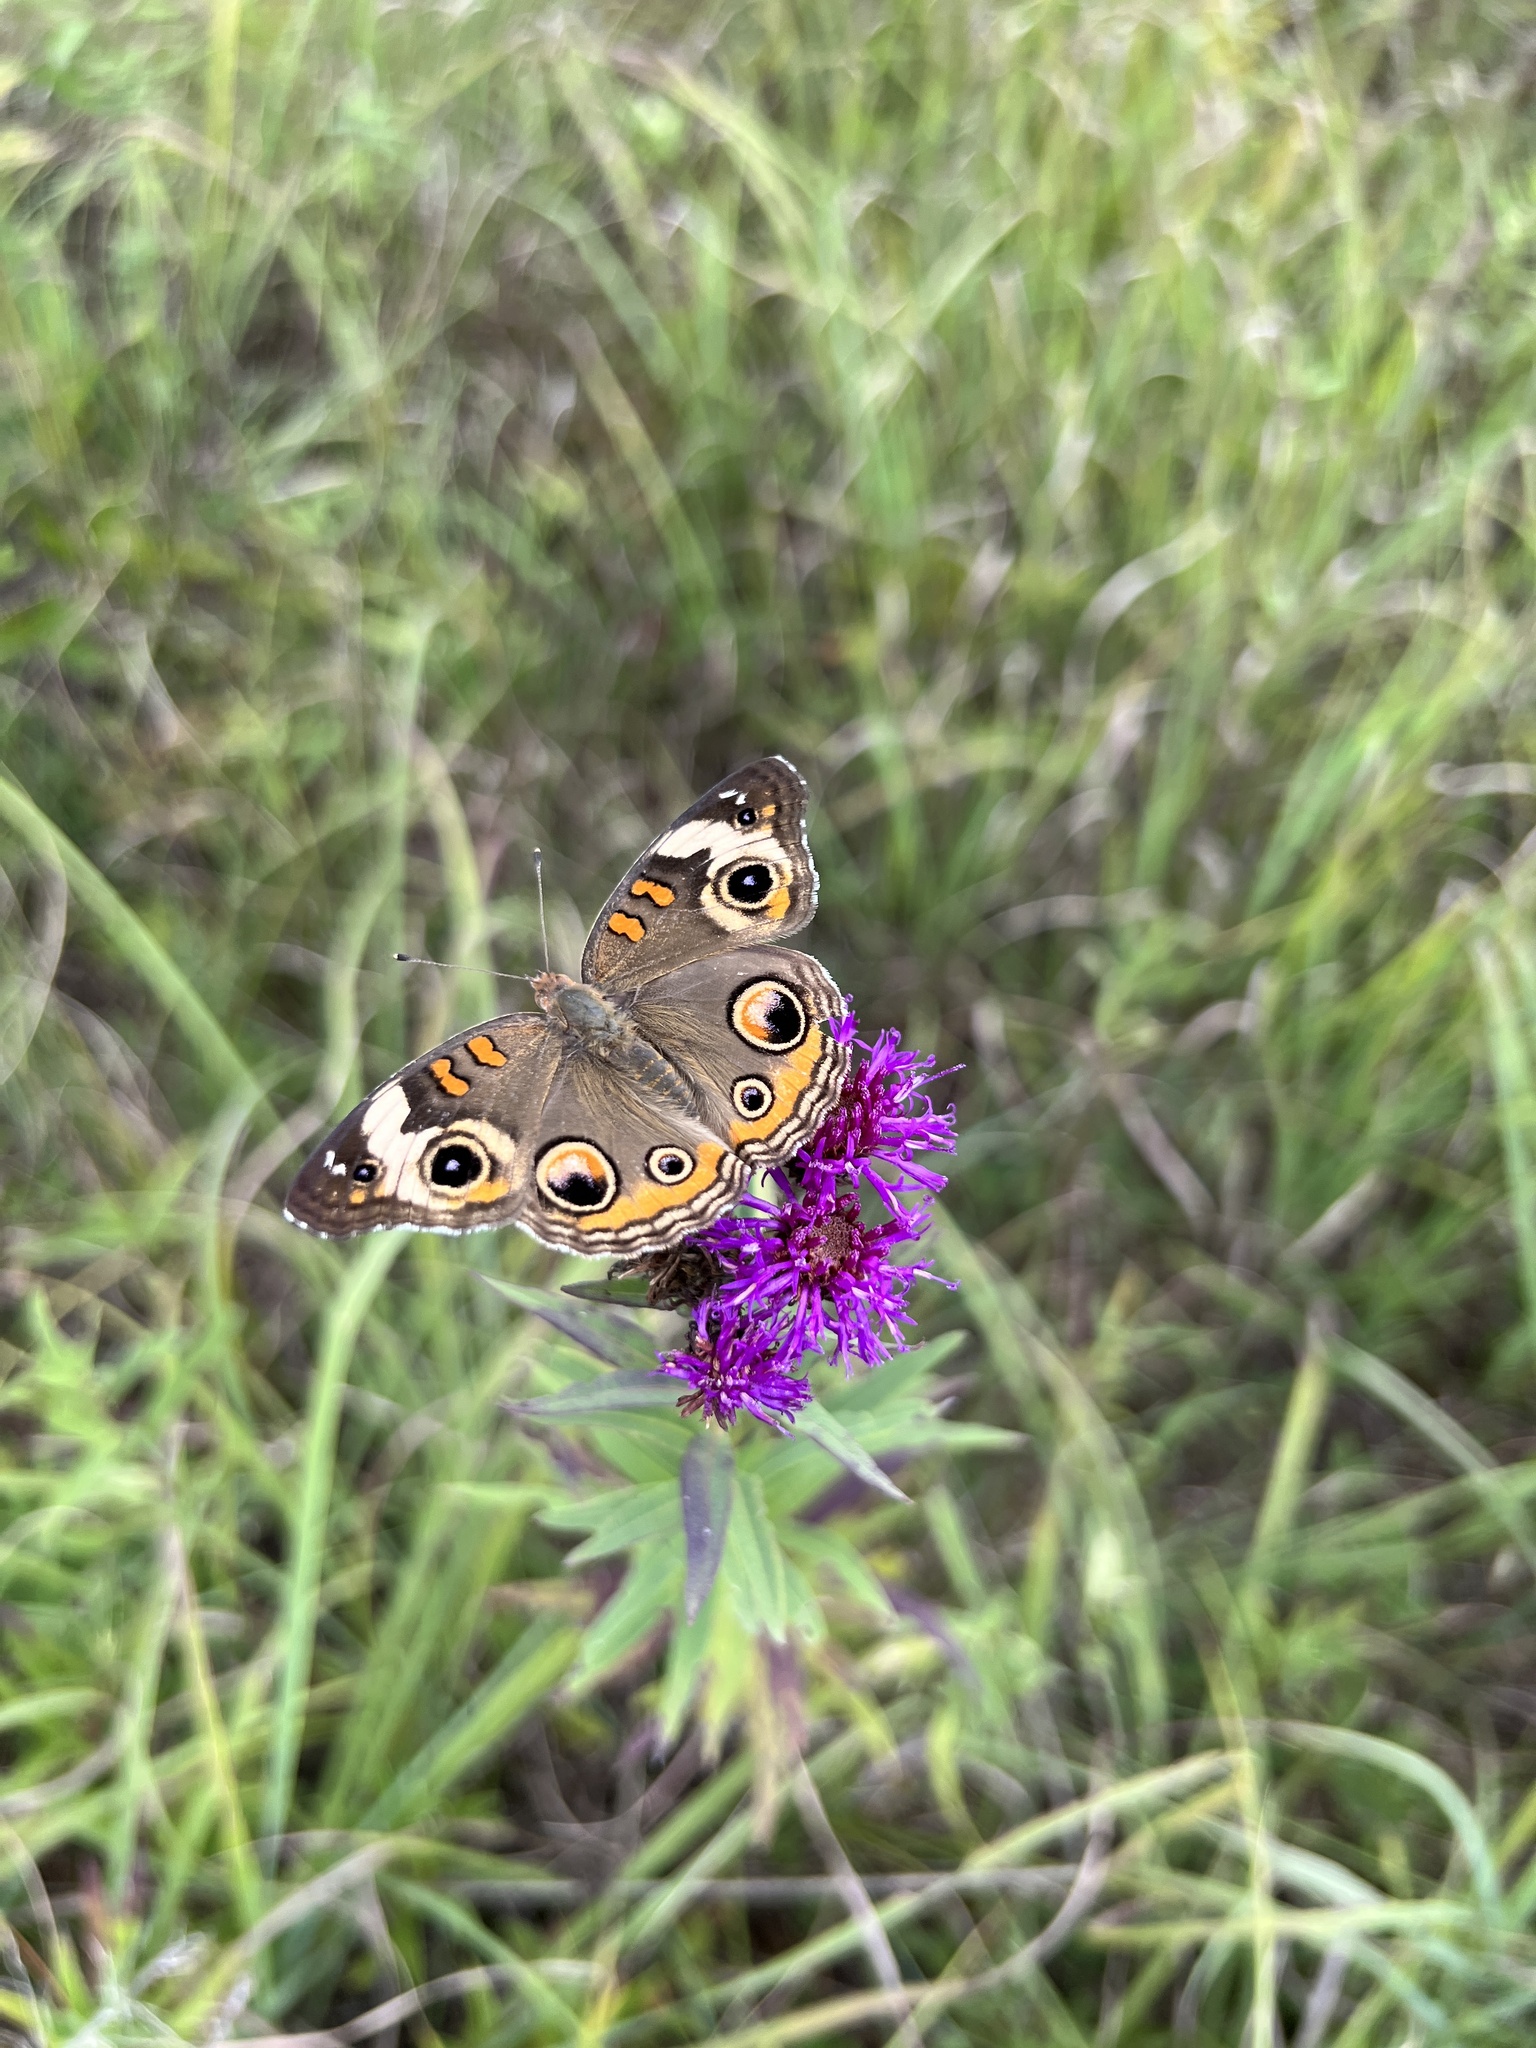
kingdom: Animalia
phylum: Arthropoda
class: Insecta
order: Lepidoptera
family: Nymphalidae
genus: Junonia
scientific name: Junonia coenia
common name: Common buckeye
